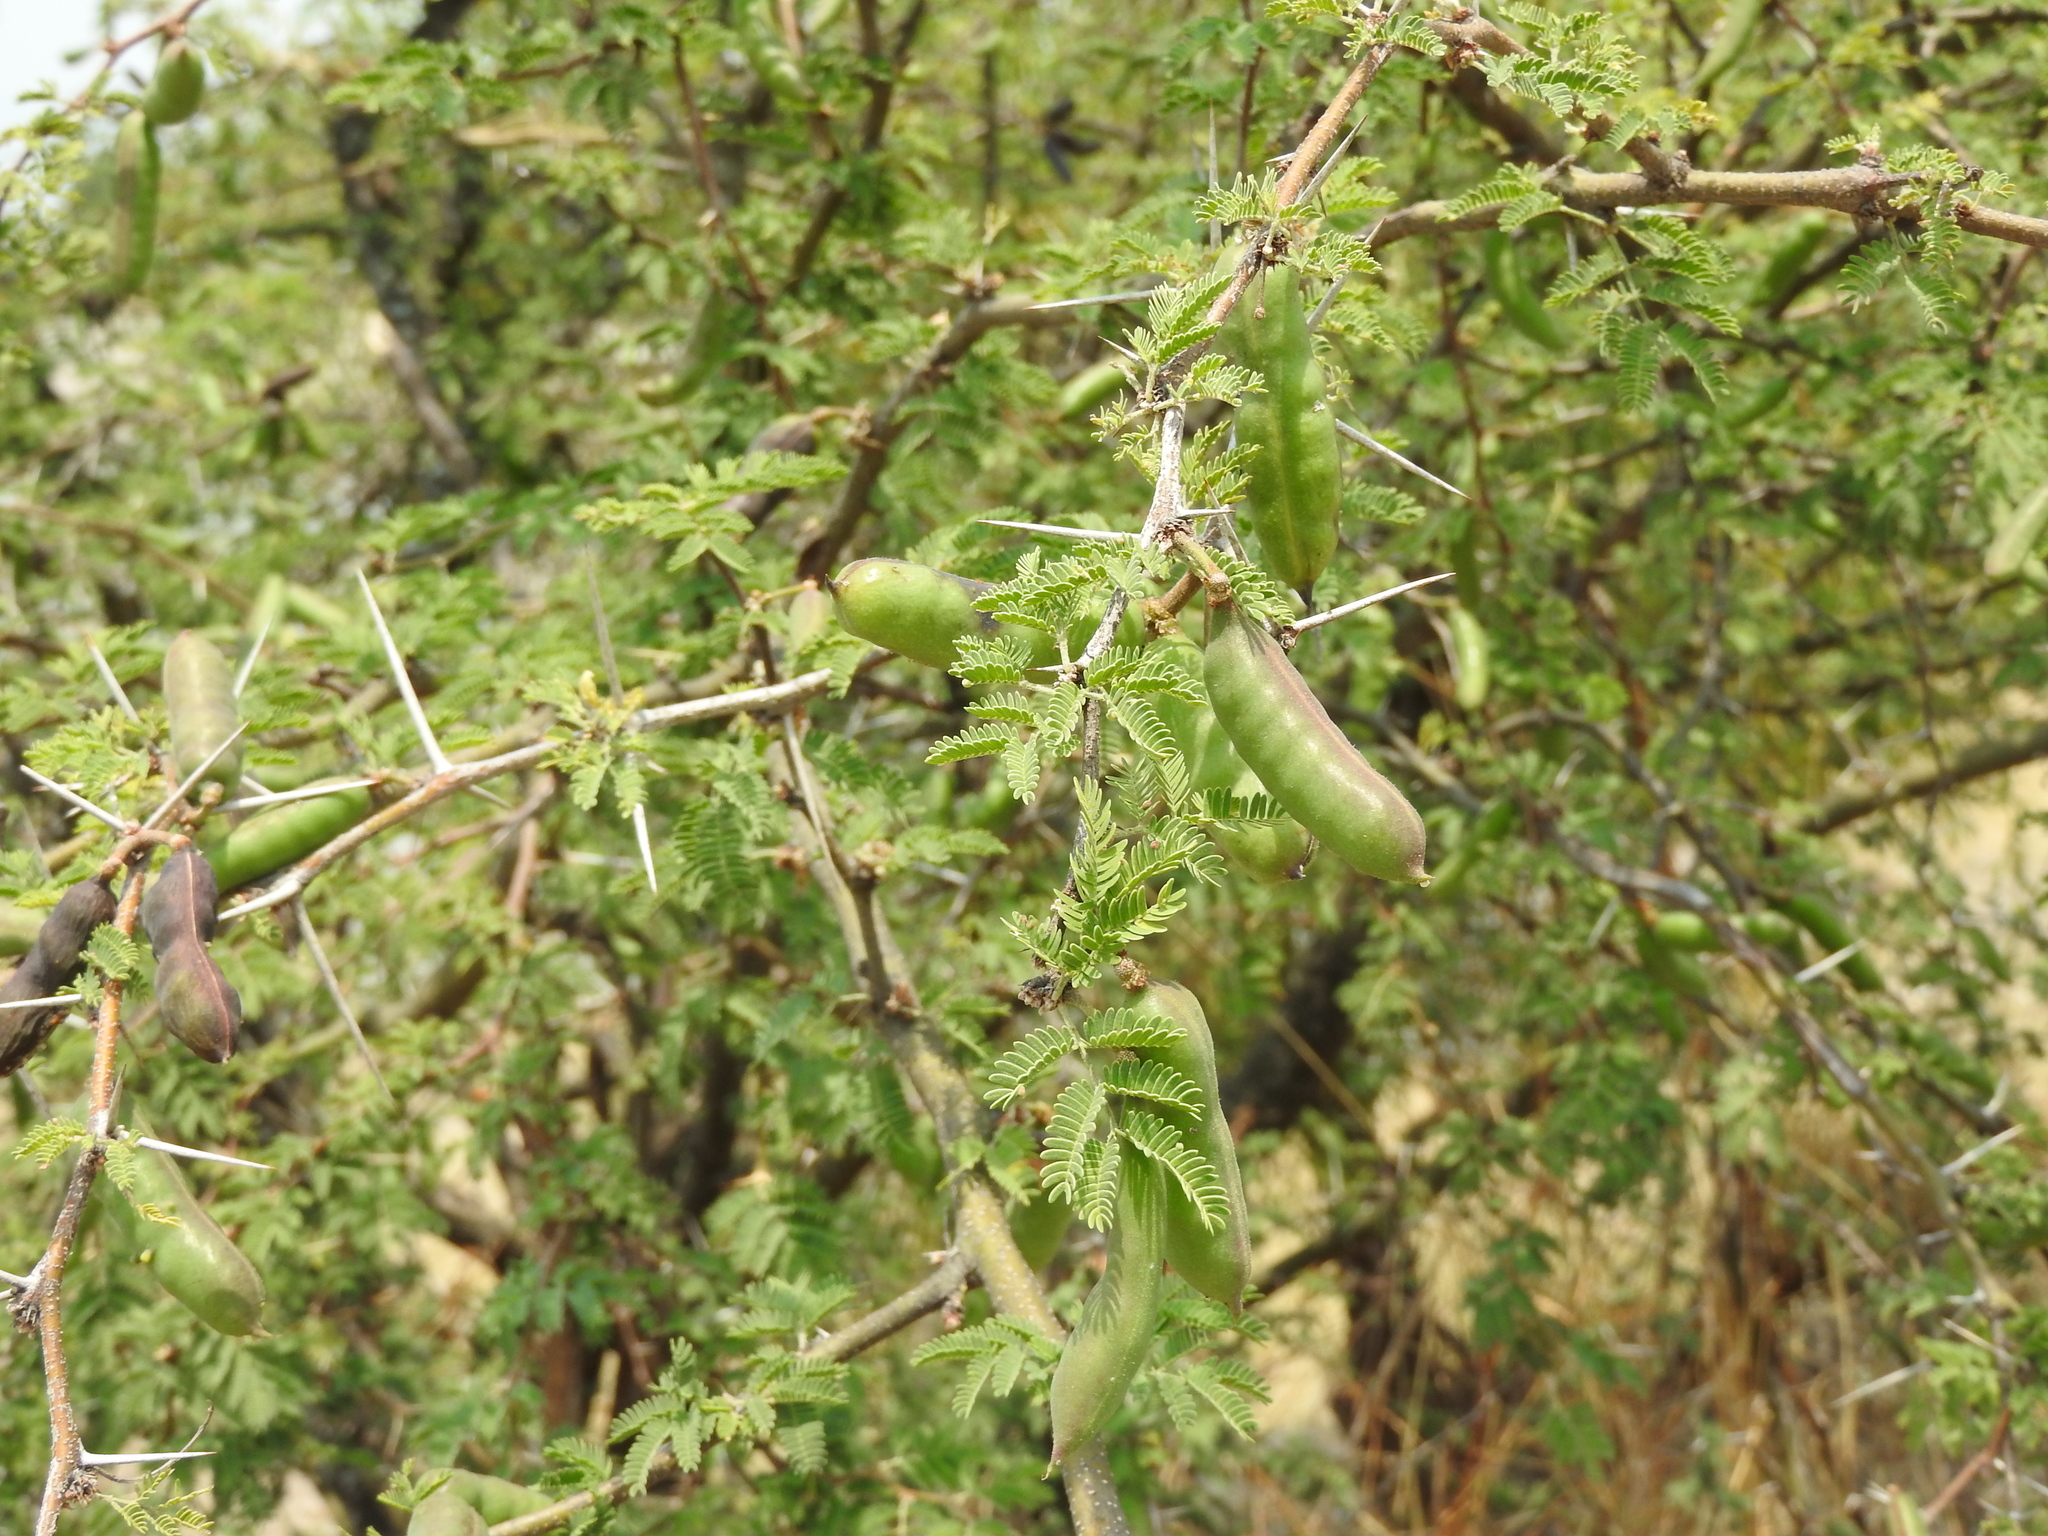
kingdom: Plantae
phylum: Tracheophyta
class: Magnoliopsida
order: Fabales
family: Fabaceae
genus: Vachellia
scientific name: Vachellia farnesiana
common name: Sweet acacia
